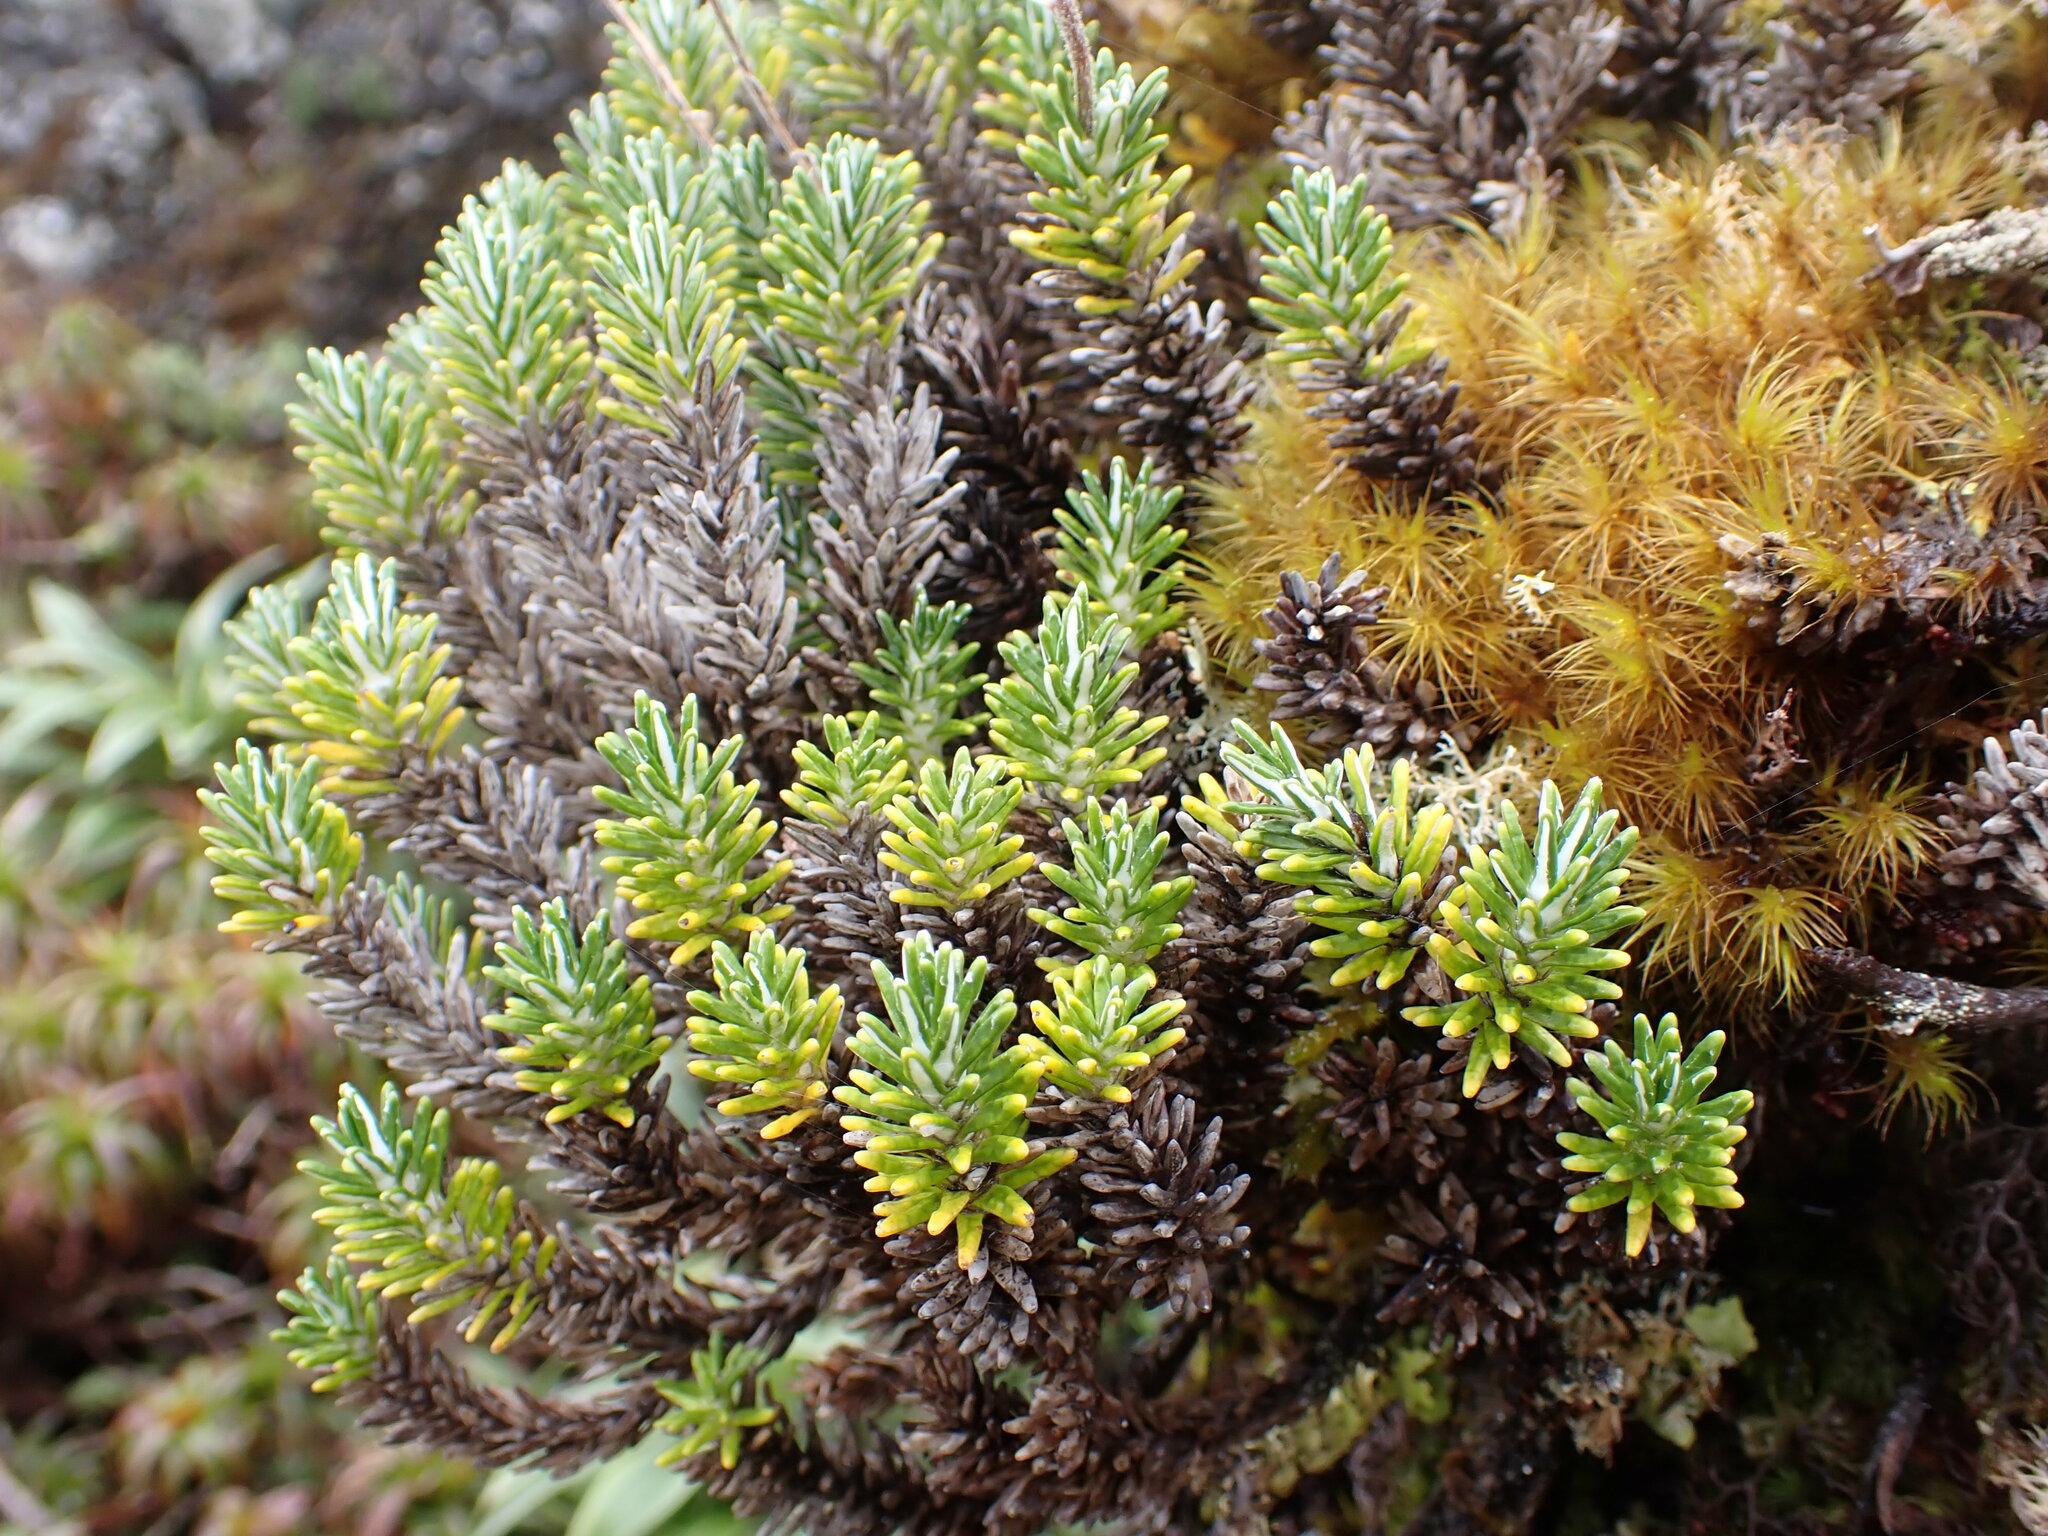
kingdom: Plantae
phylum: Tracheophyta
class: Magnoliopsida
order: Asterales
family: Asteraceae
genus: Celmisia
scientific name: Celmisia ramulosa
